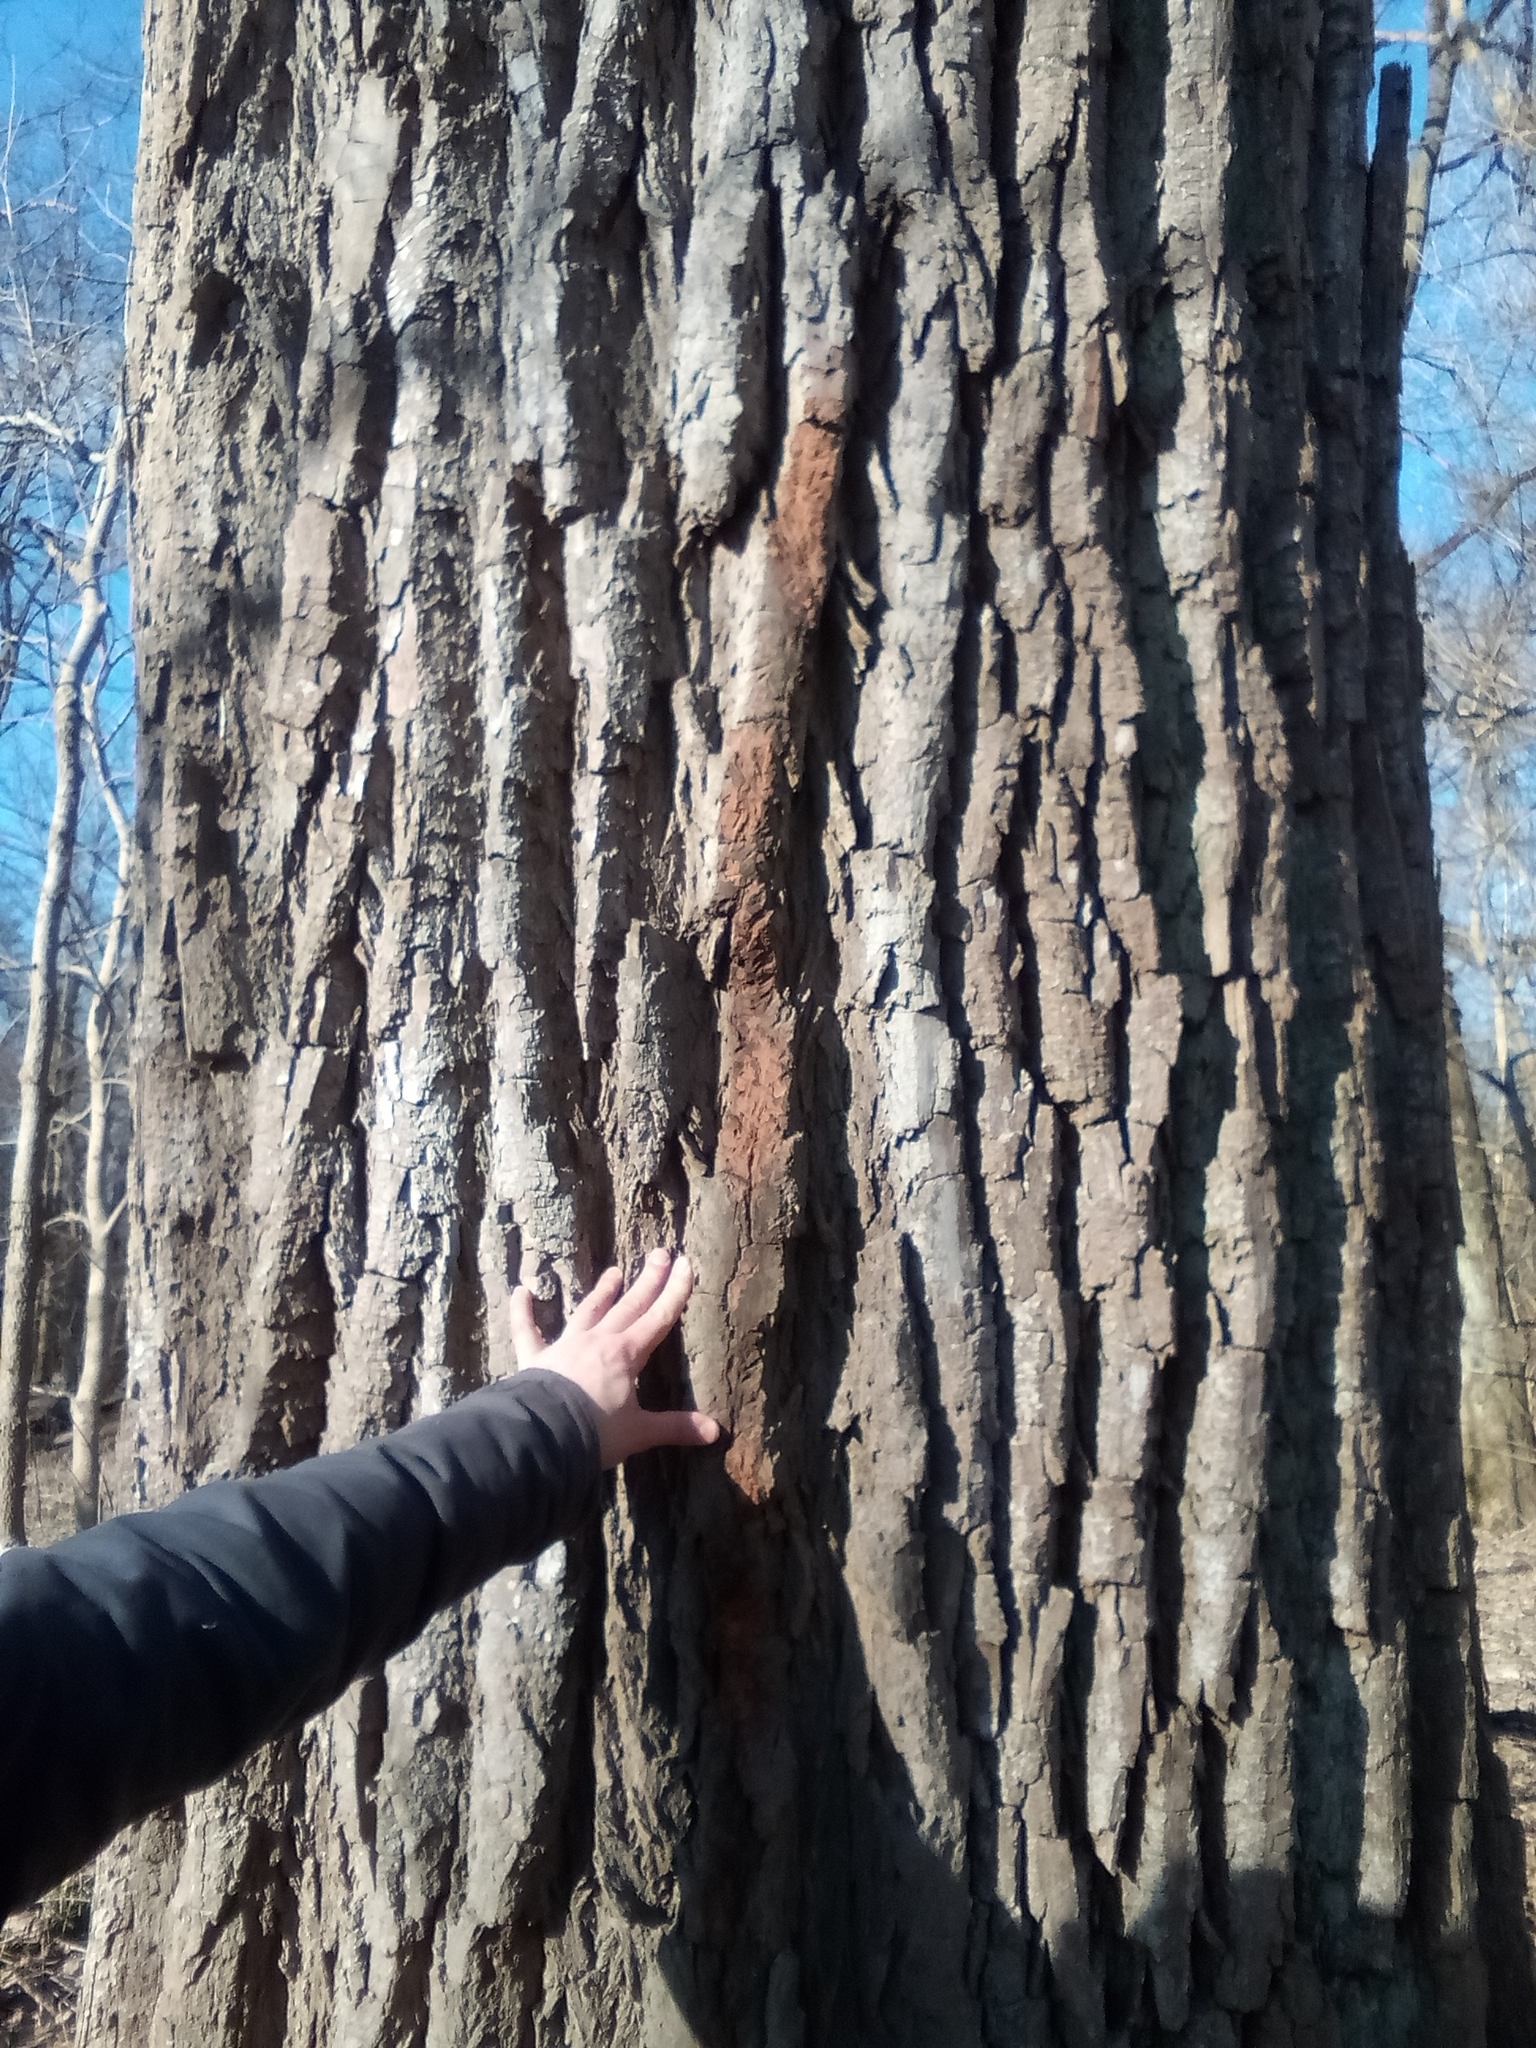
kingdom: Plantae
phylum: Tracheophyta
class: Magnoliopsida
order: Malpighiales
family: Salicaceae
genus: Populus
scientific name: Populus deltoides
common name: Eastern cottonwood
